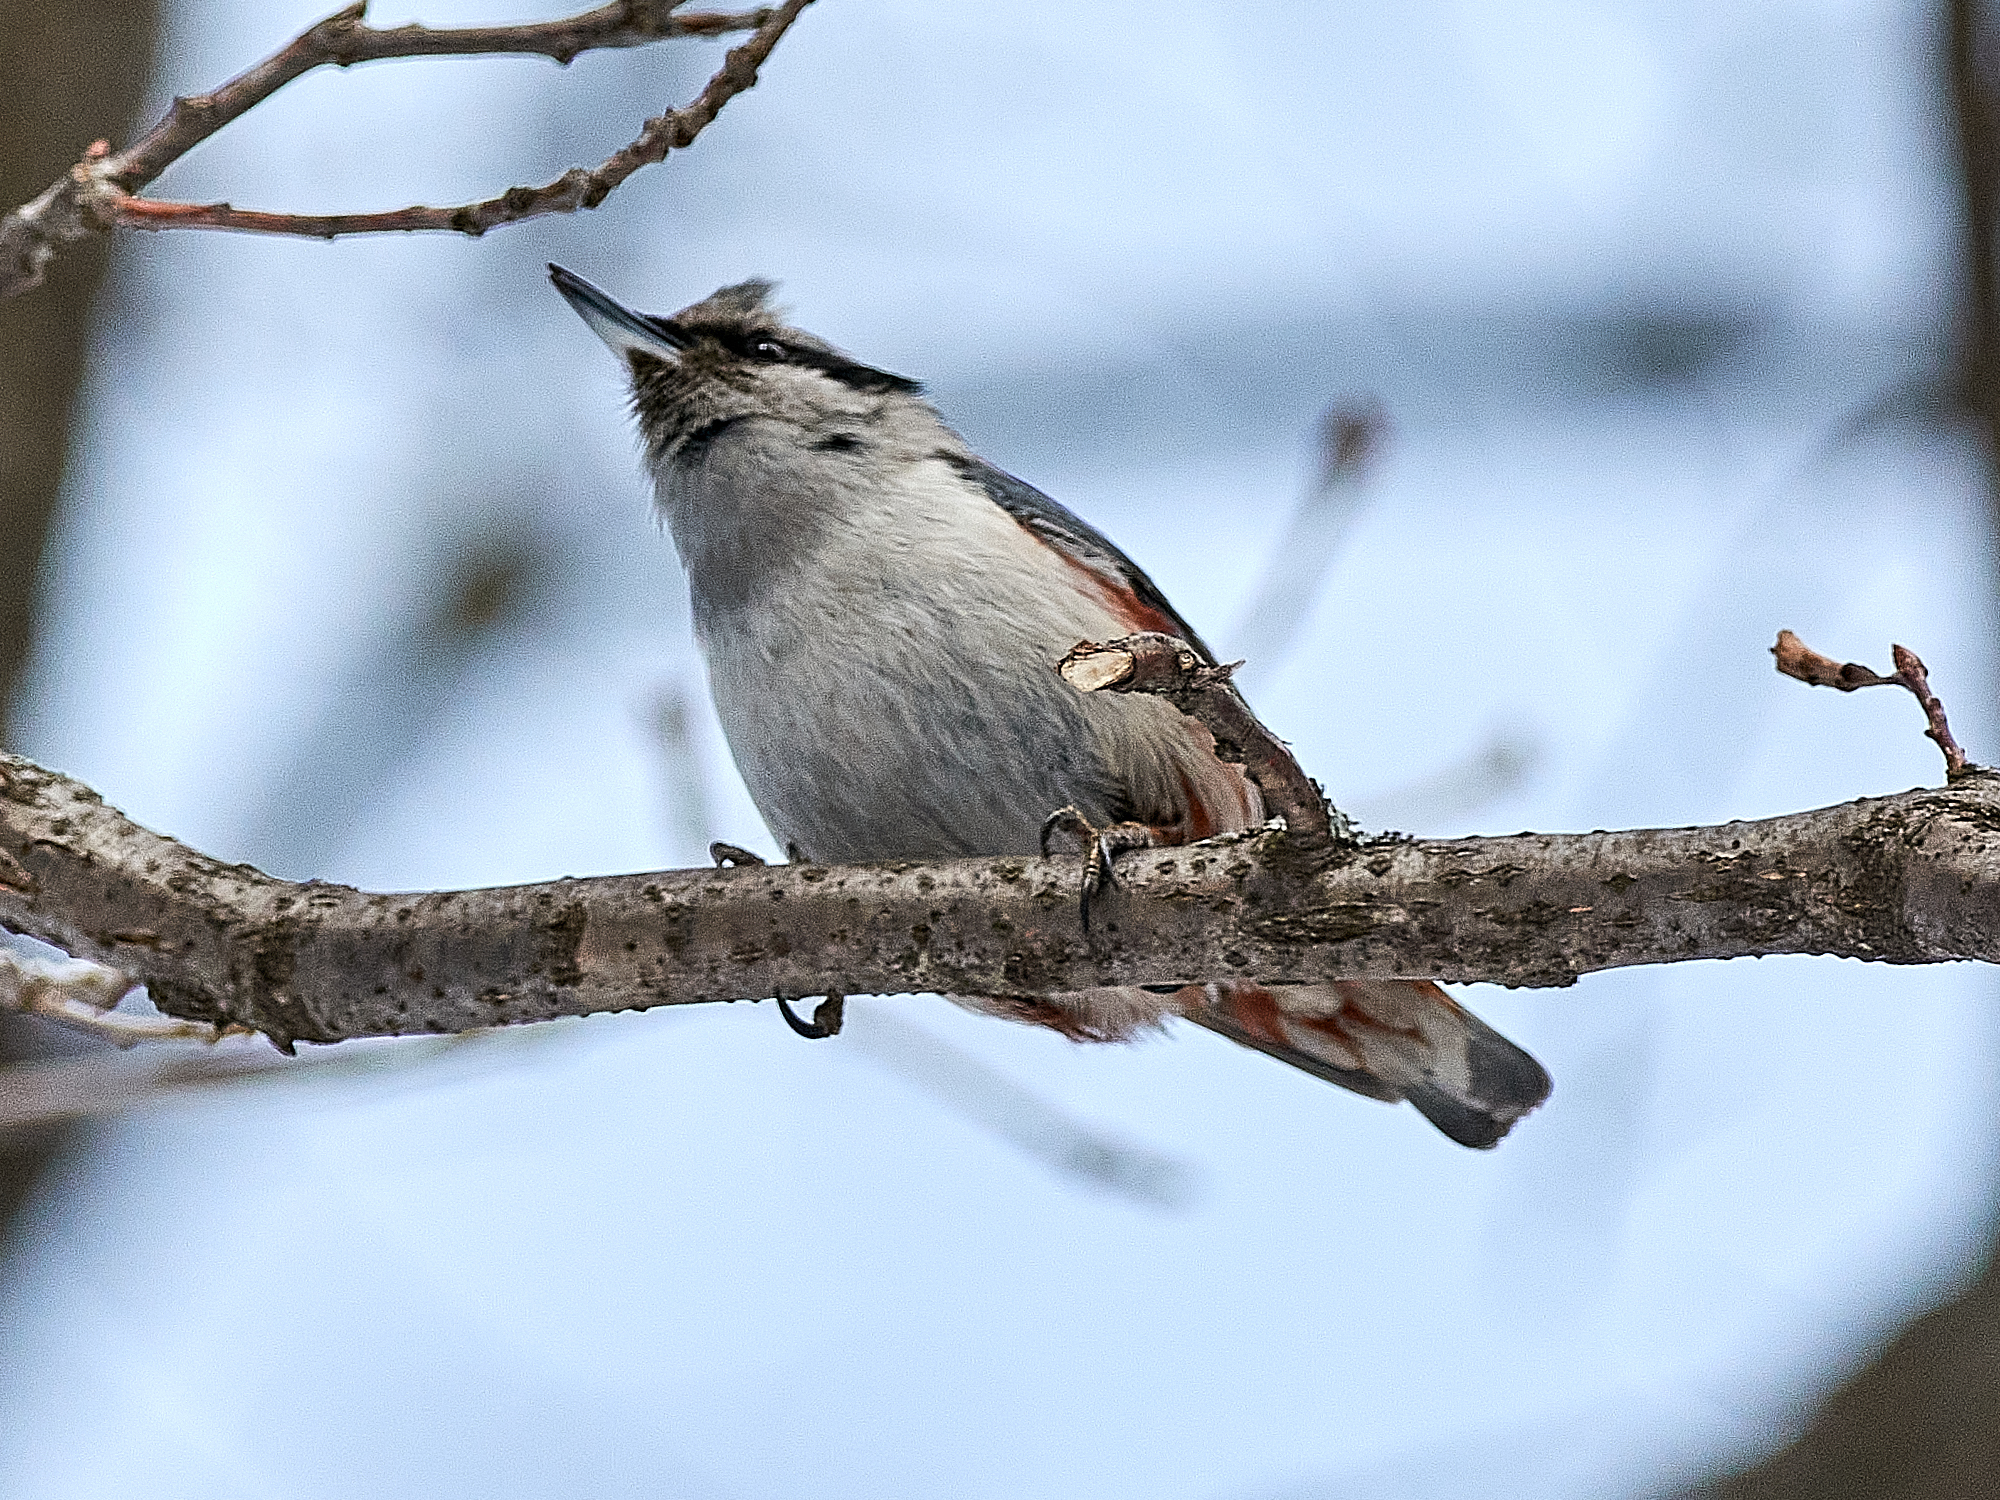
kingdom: Animalia
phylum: Chordata
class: Aves
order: Passeriformes
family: Sittidae
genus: Sitta
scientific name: Sitta europaea
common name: Eurasian nuthatch
